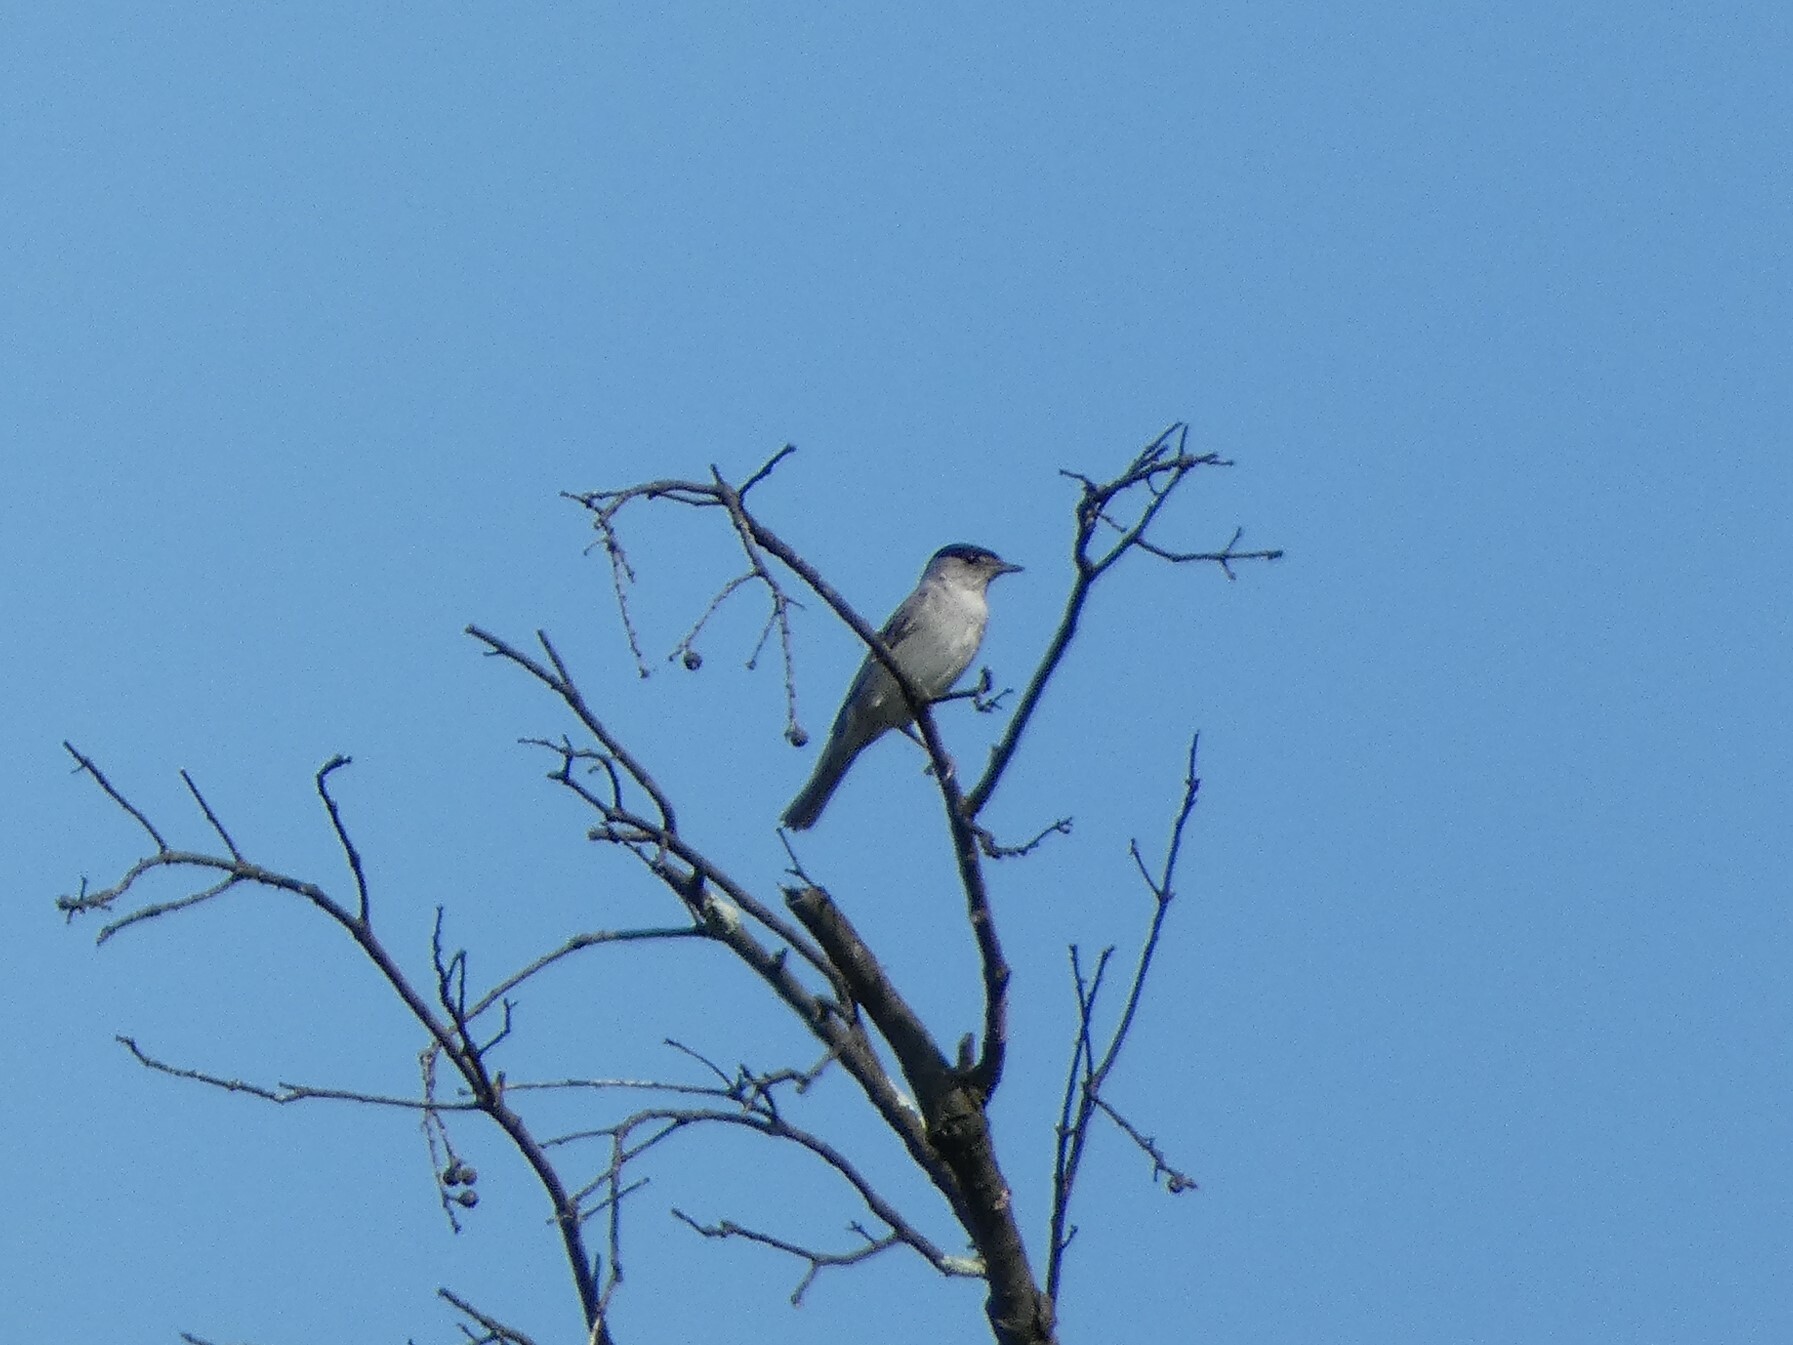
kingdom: Animalia
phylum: Chordata
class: Aves
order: Passeriformes
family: Sylviidae
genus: Sylvia
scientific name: Sylvia atricapilla
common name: Eurasian blackcap
